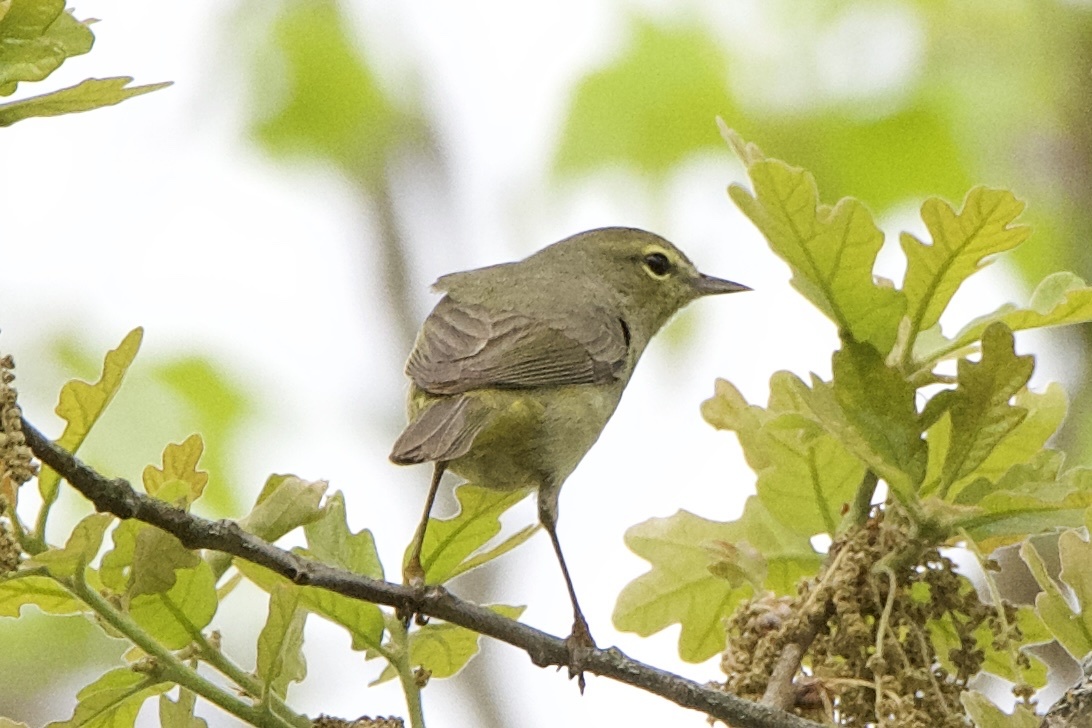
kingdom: Animalia
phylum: Chordata
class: Aves
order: Passeriformes
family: Parulidae
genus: Leiothlypis
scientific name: Leiothlypis celata
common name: Orange-crowned warbler
